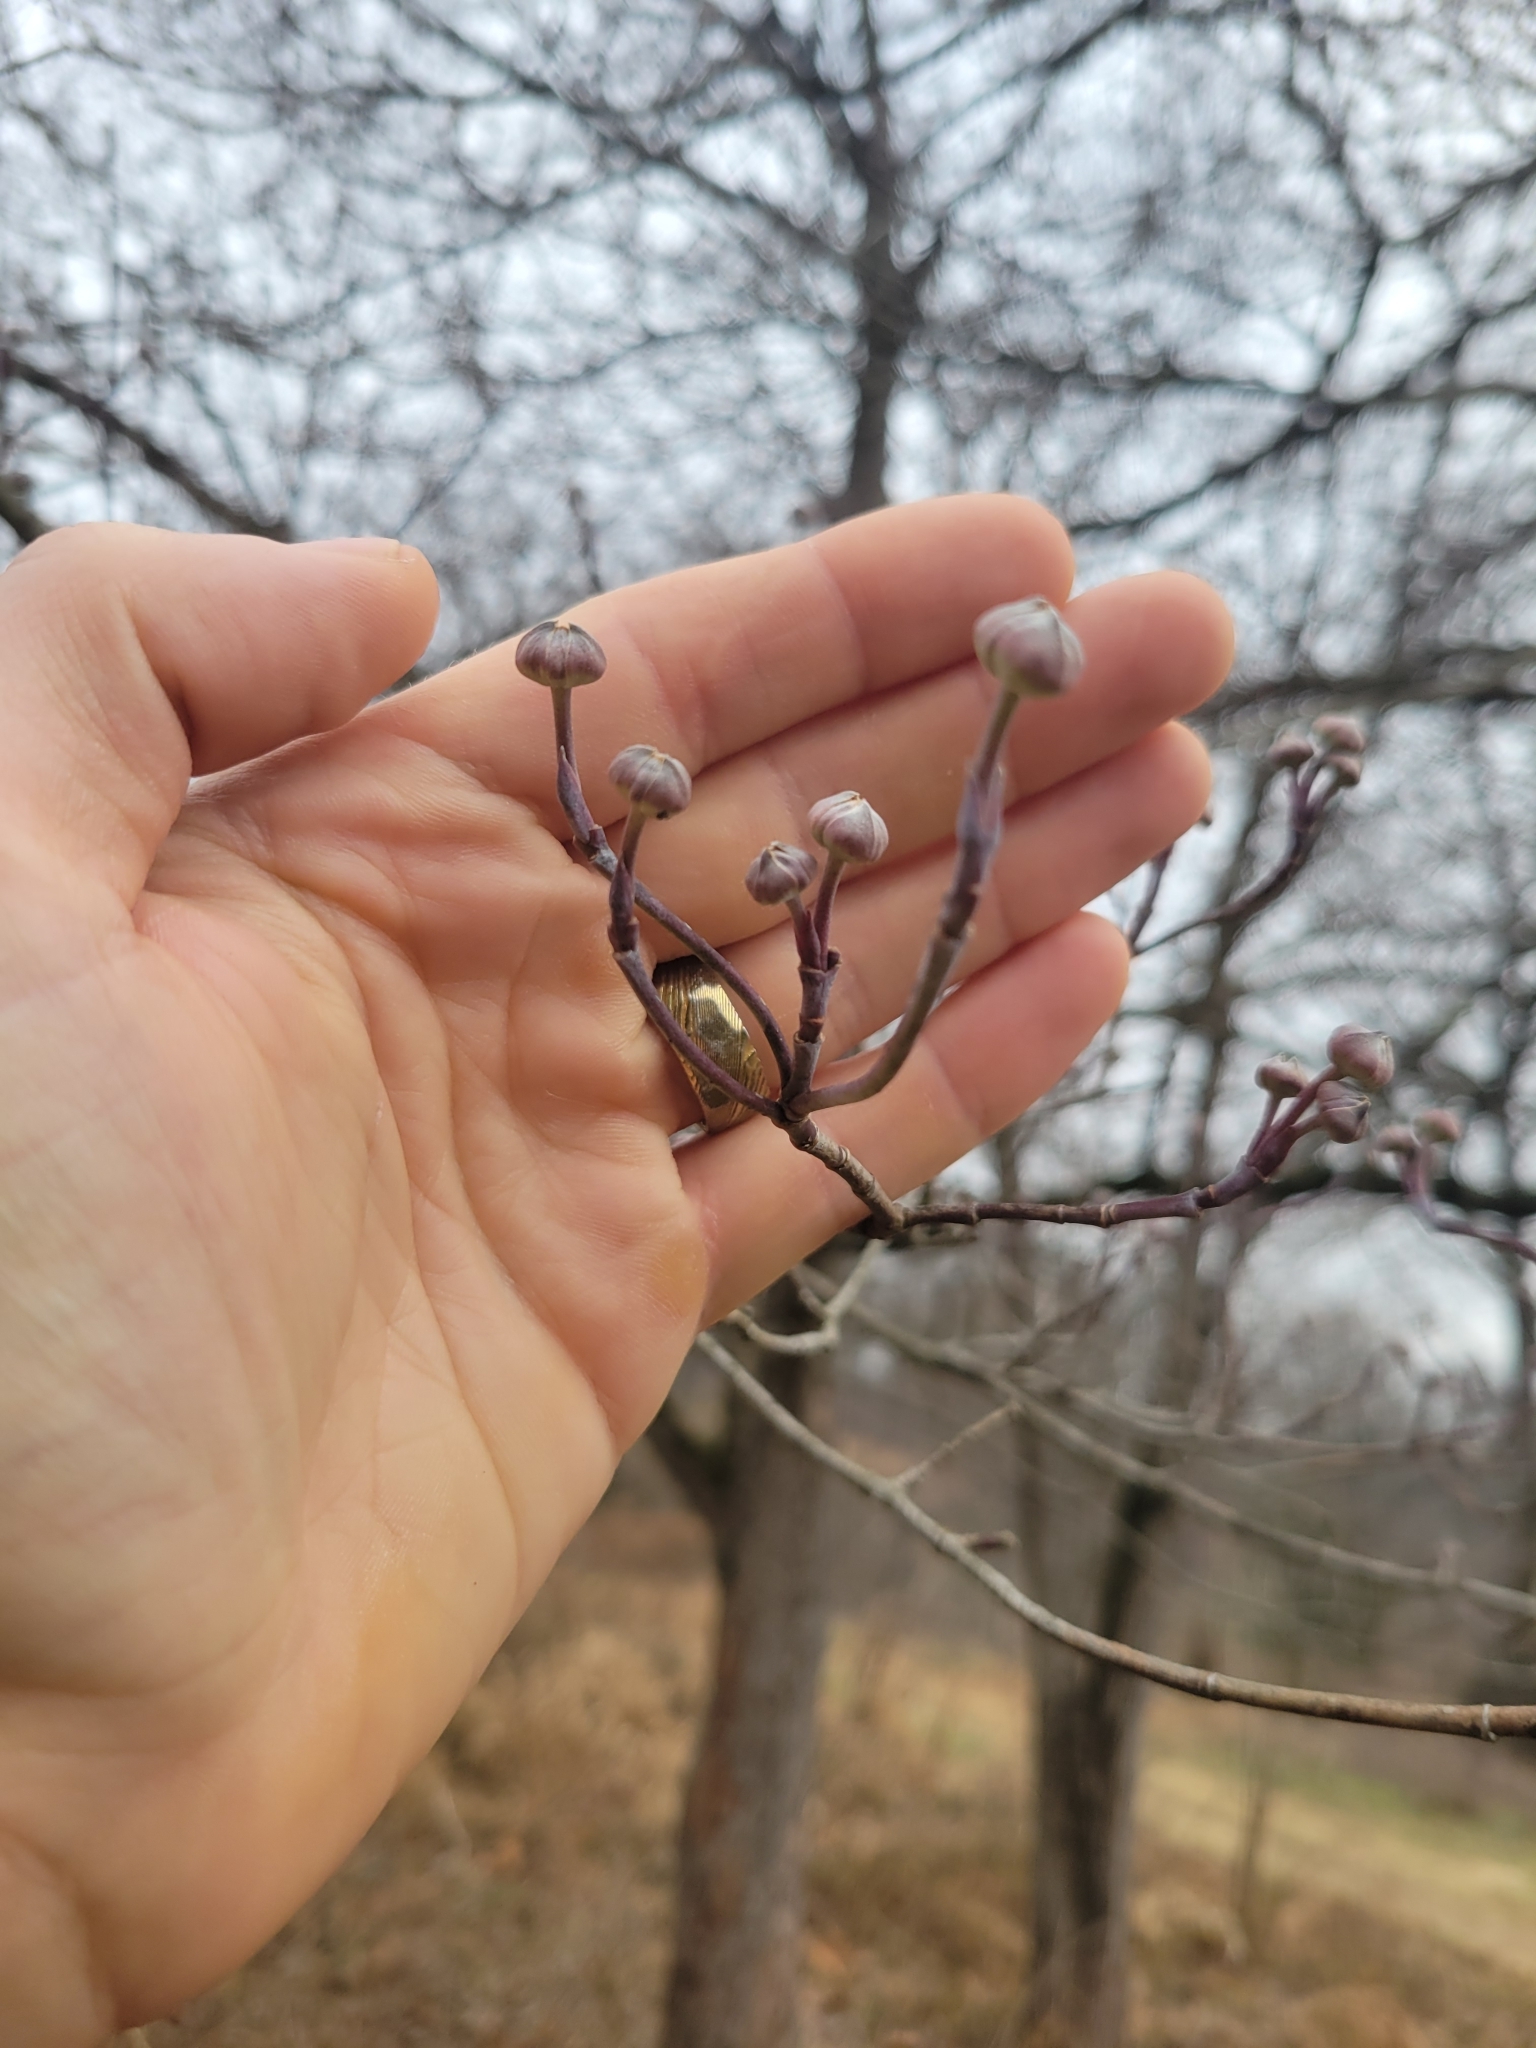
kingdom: Plantae
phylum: Tracheophyta
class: Magnoliopsida
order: Cornales
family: Cornaceae
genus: Cornus
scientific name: Cornus florida
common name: Flowering dogwood
